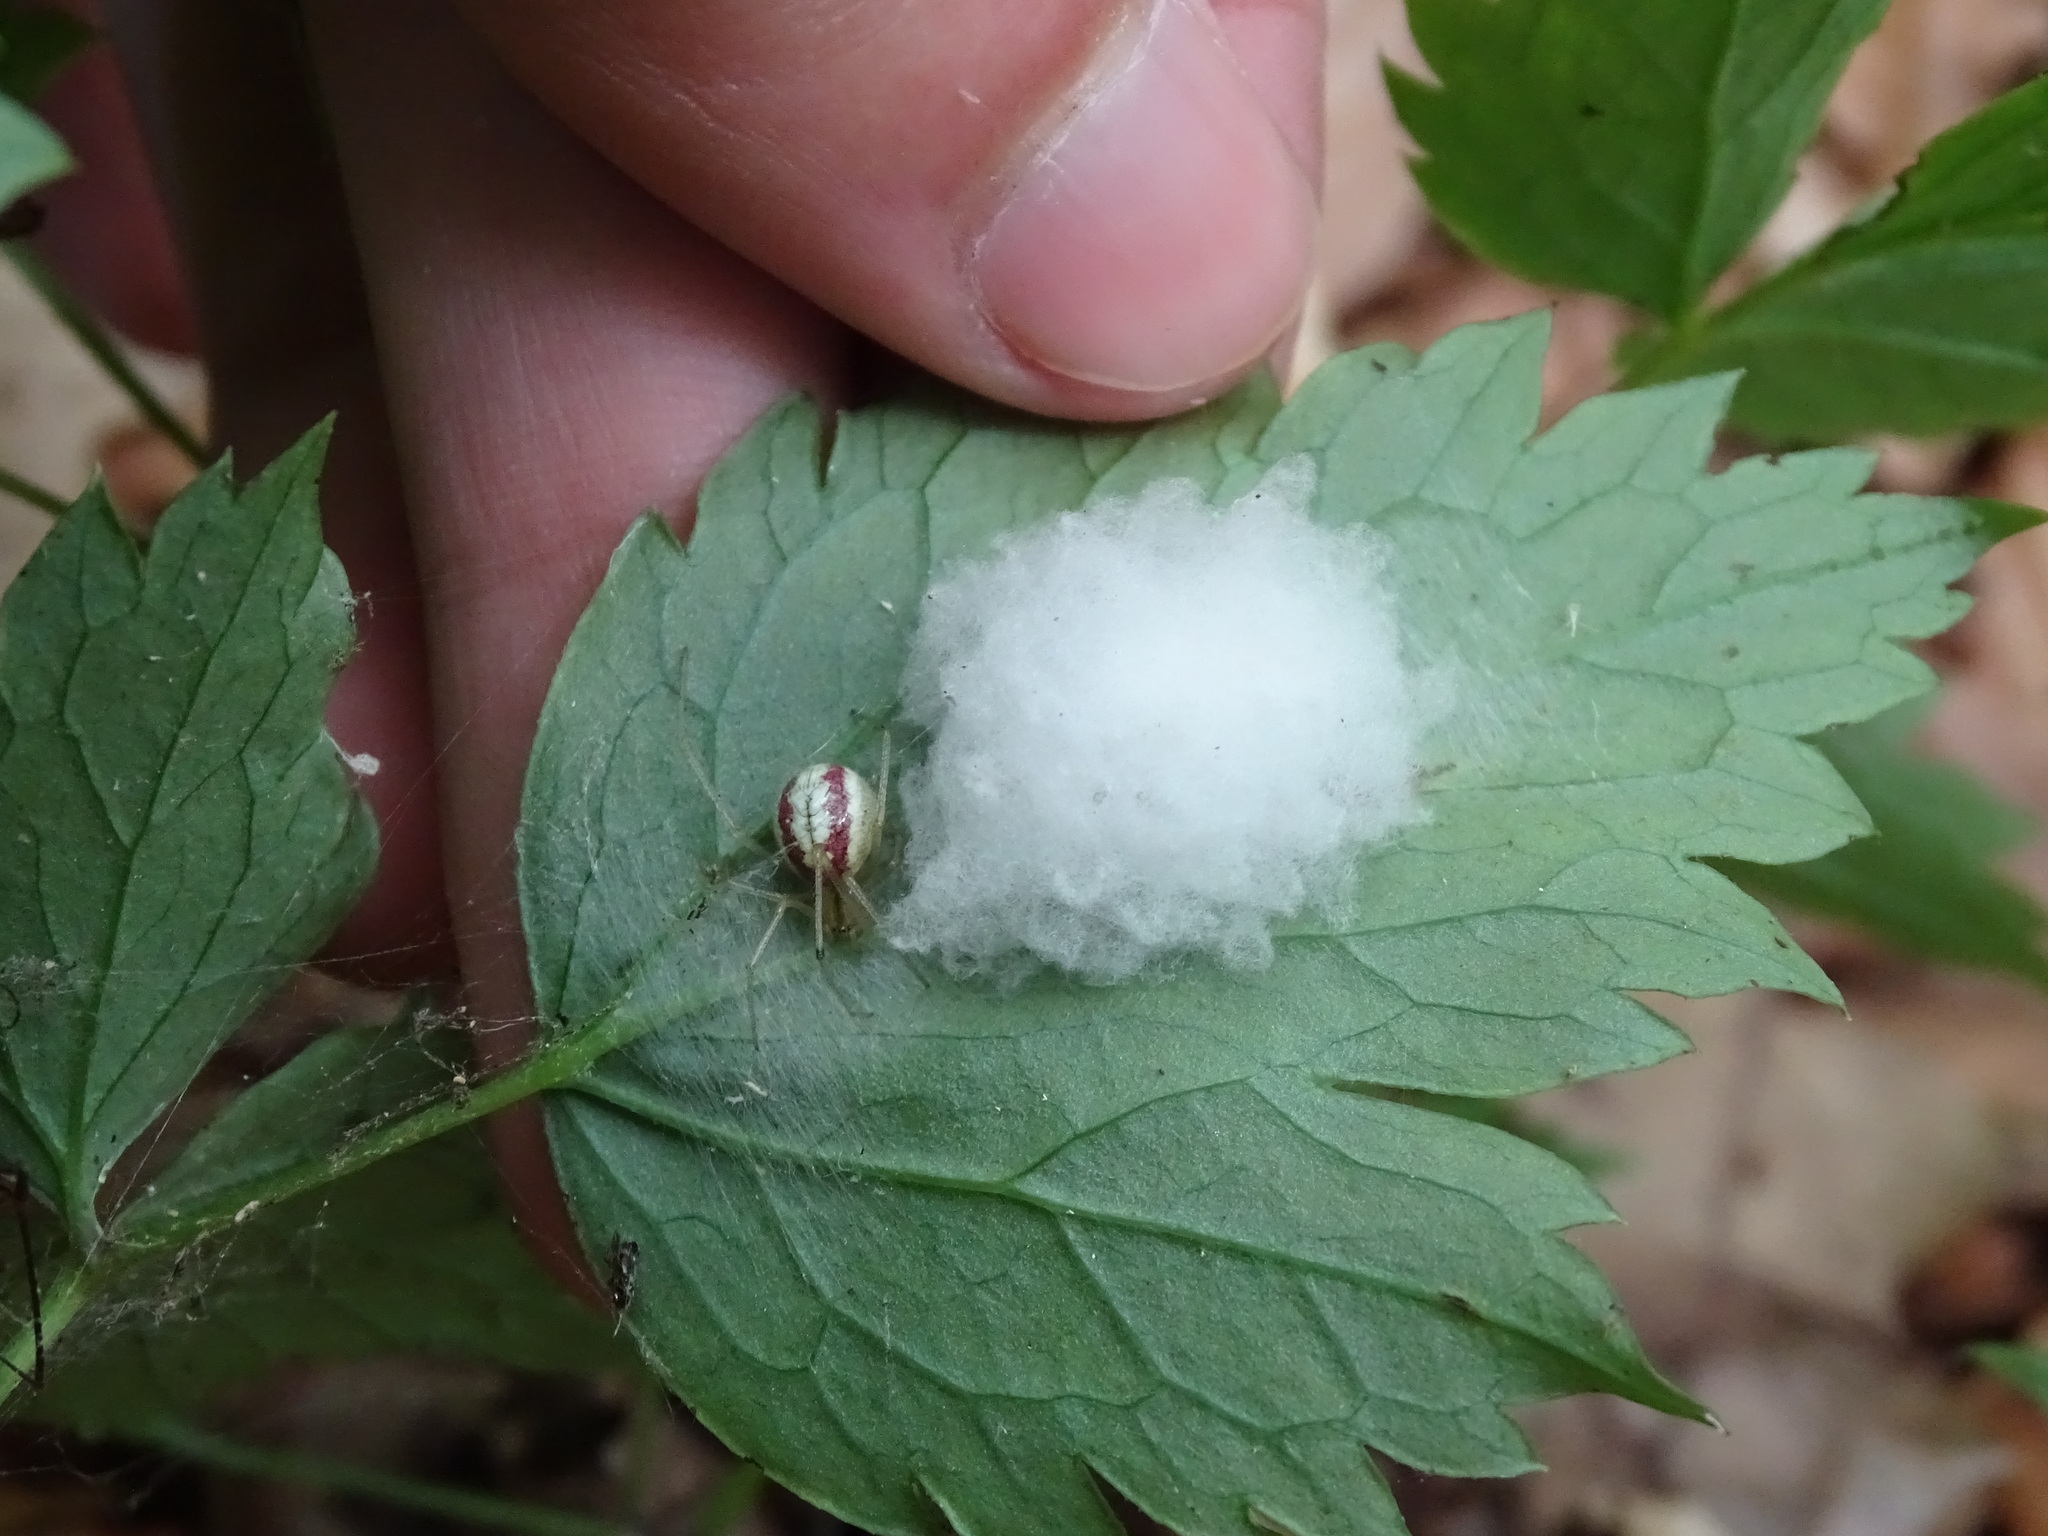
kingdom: Animalia
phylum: Arthropoda
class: Arachnida
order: Araneae
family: Theridiidae
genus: Enoplognatha
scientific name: Enoplognatha ovata
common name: Common candy-striped spider
